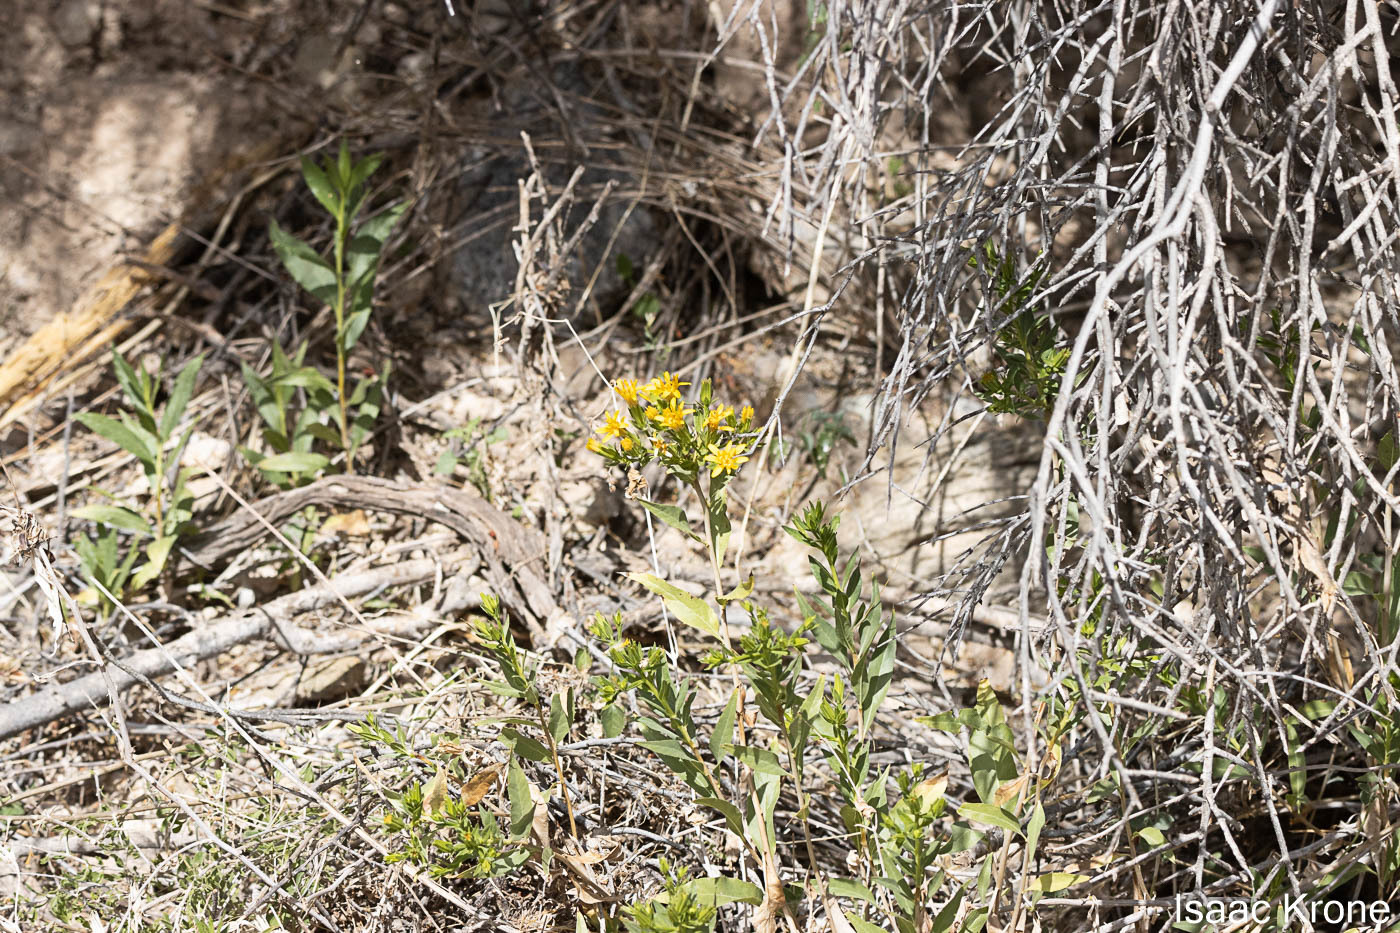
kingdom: Plantae
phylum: Tracheophyta
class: Magnoliopsida
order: Asterales
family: Asteraceae
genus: Trixis
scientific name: Trixis californica
